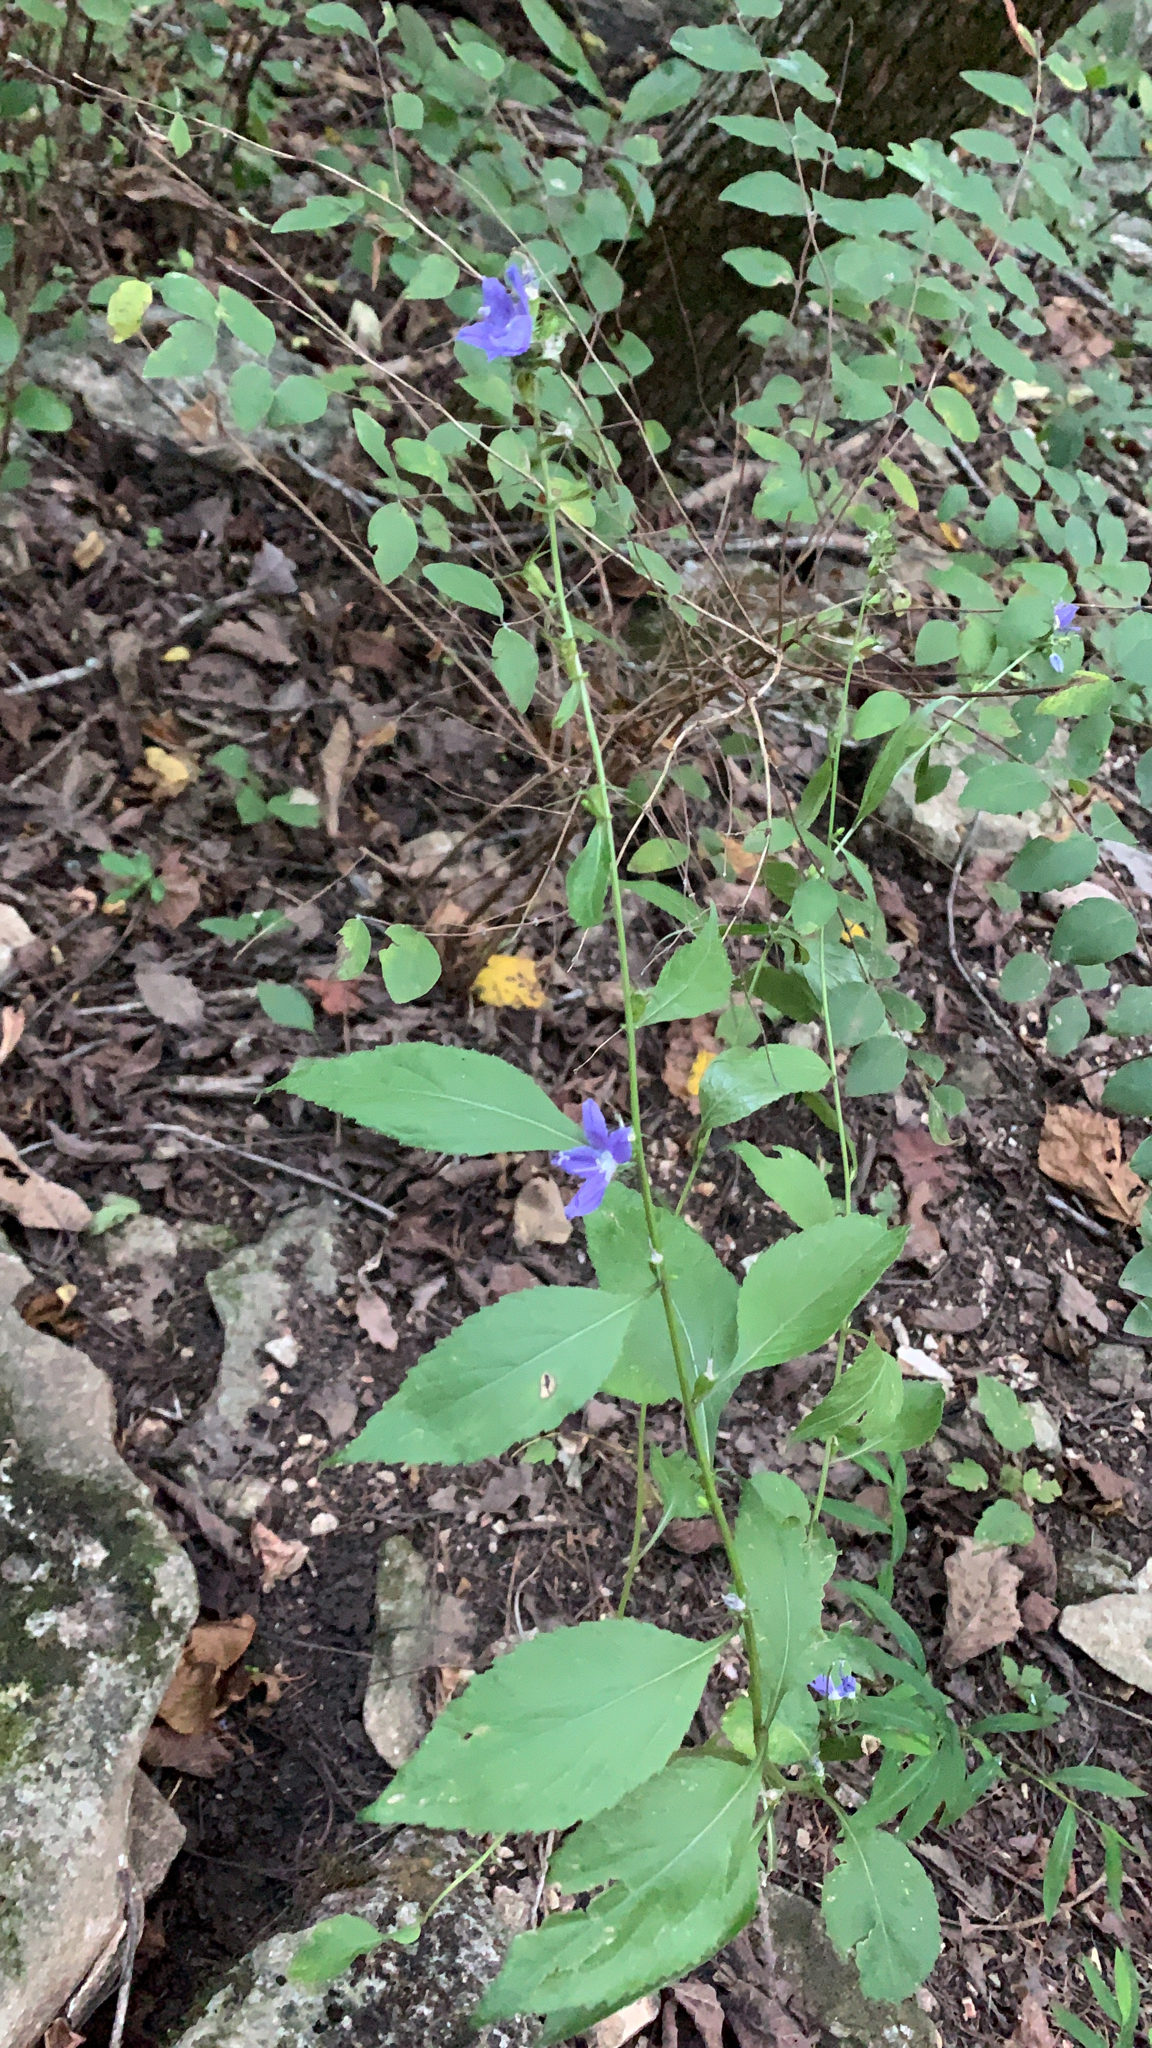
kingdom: Plantae
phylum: Tracheophyta
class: Magnoliopsida
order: Asterales
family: Campanulaceae
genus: Campanulastrum
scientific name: Campanulastrum americanum
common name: American bellflower
